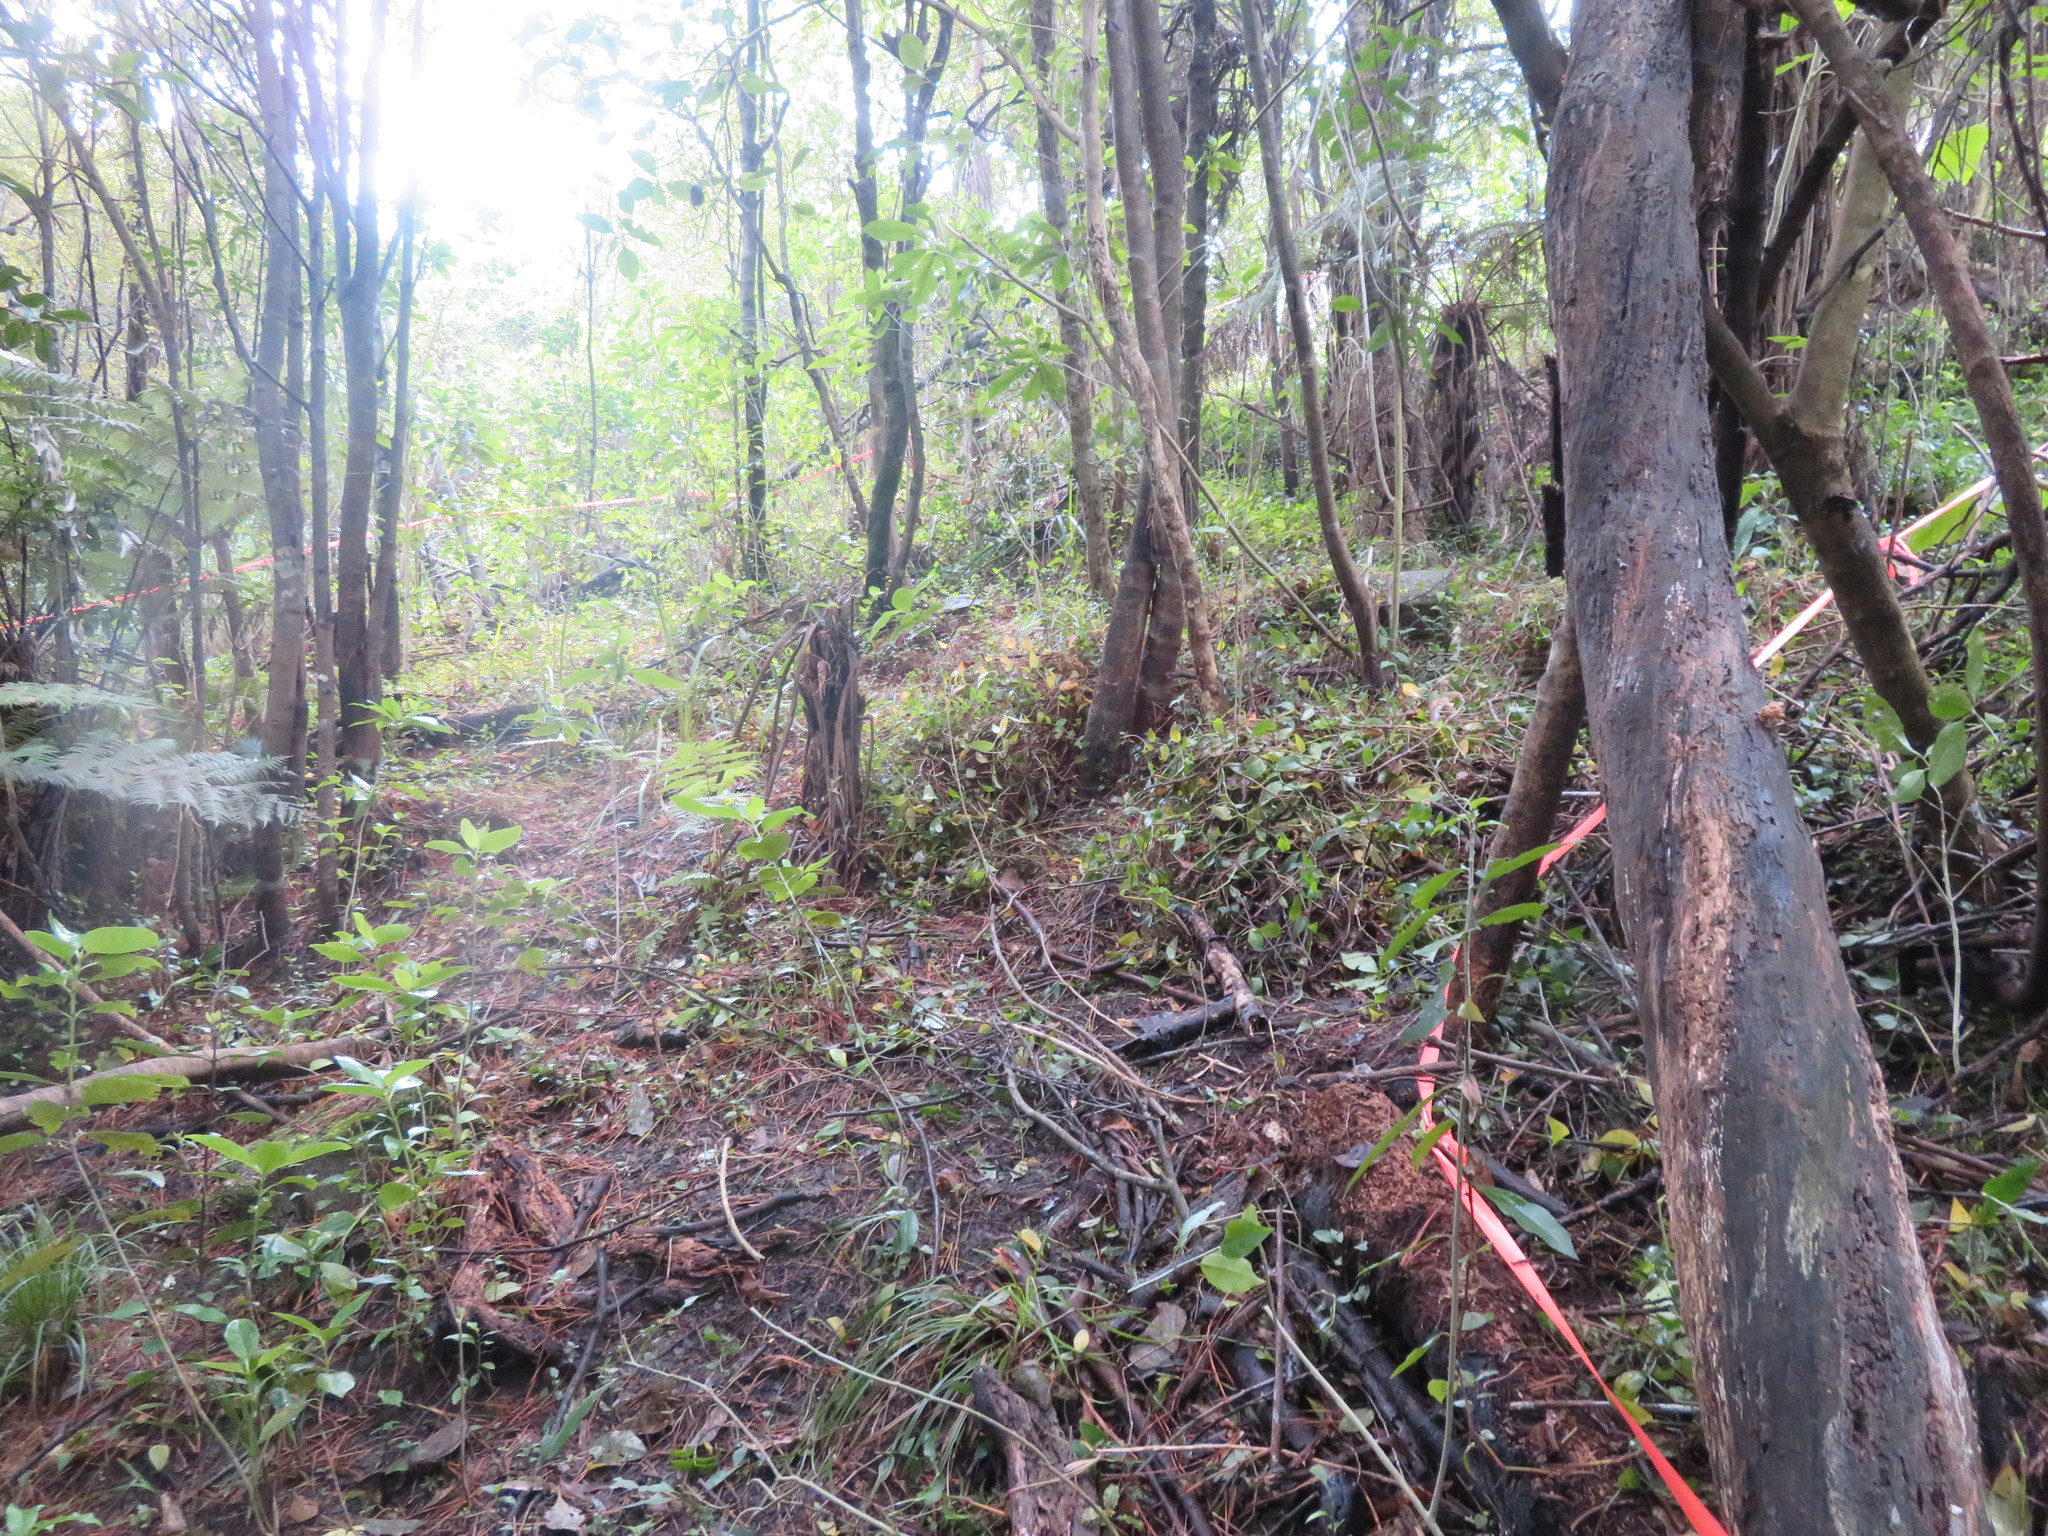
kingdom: Plantae
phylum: Tracheophyta
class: Liliopsida
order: Commelinales
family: Commelinaceae
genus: Tradescantia
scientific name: Tradescantia fluminensis
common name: Wandering-jew
